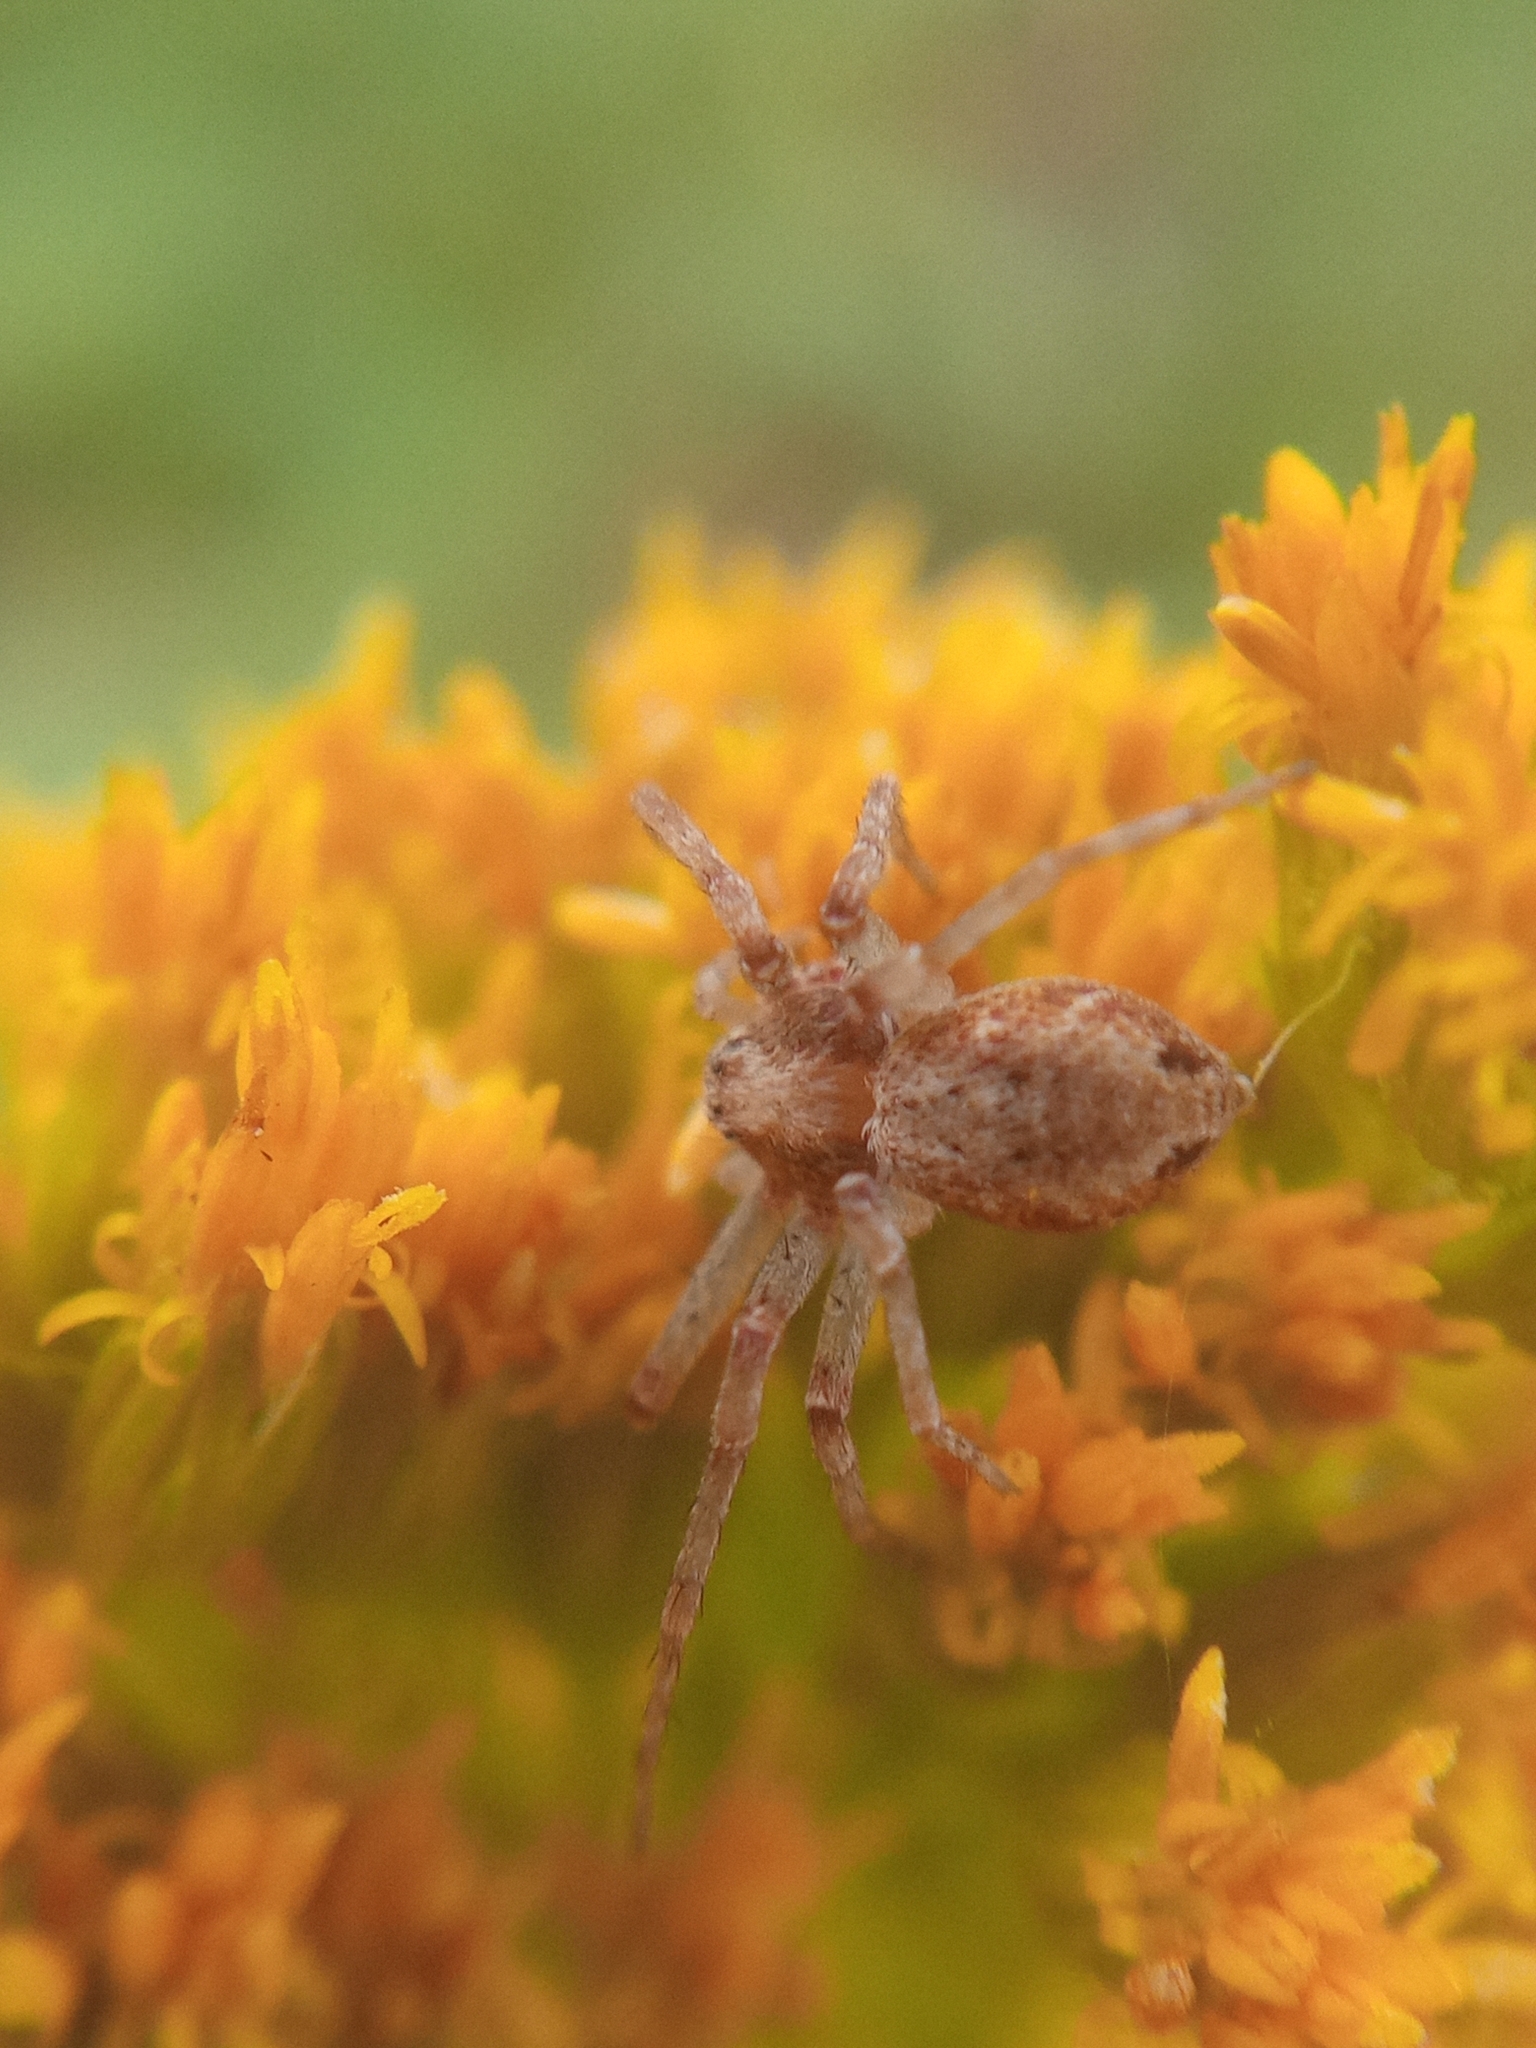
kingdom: Animalia
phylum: Arthropoda
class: Arachnida
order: Araneae
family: Philodromidae
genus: Philodromus
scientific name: Philodromus
